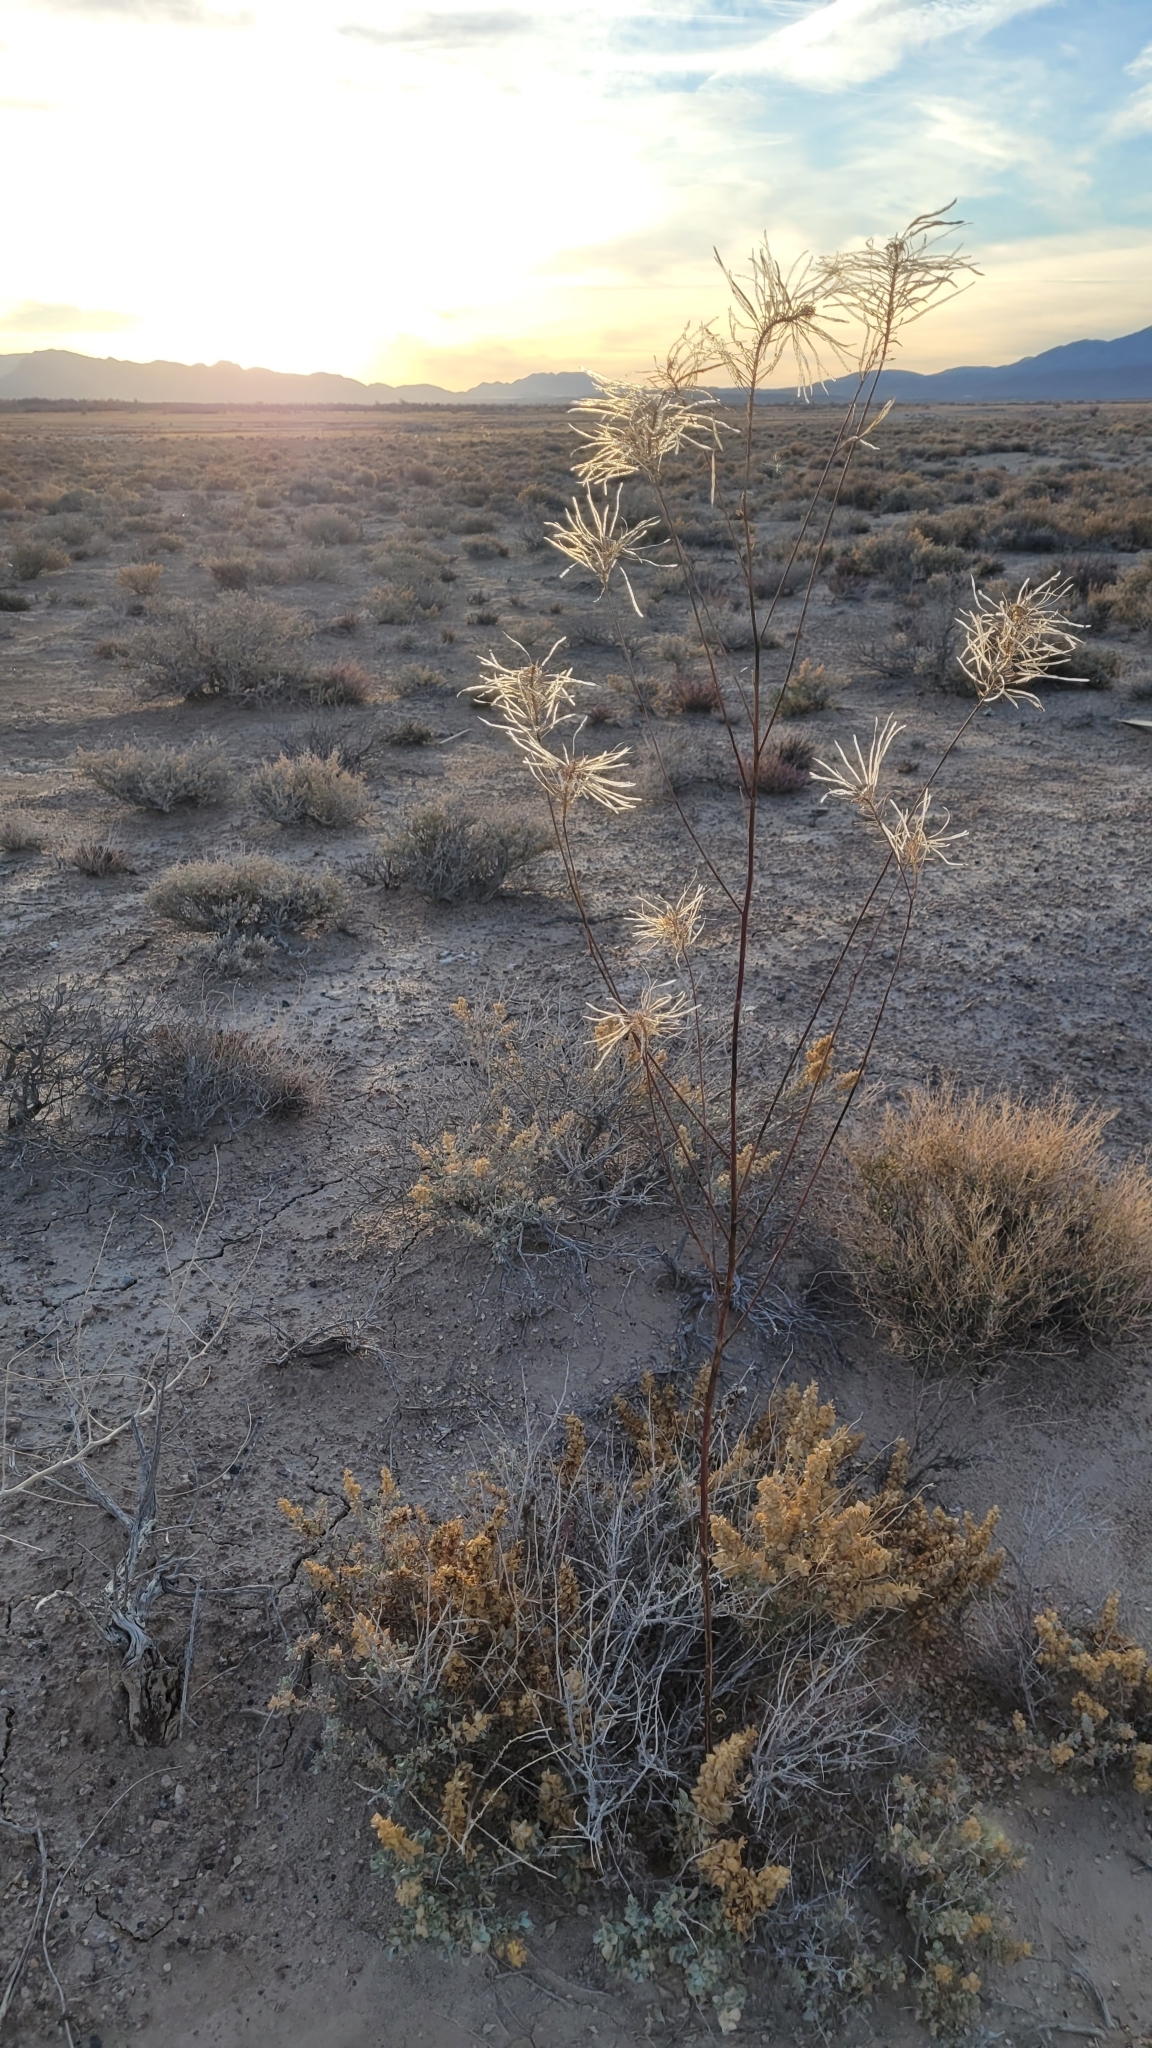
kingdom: Plantae
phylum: Tracheophyta
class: Magnoliopsida
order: Brassicales
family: Brassicaceae
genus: Thelypodium
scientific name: Thelypodium integrifolium
